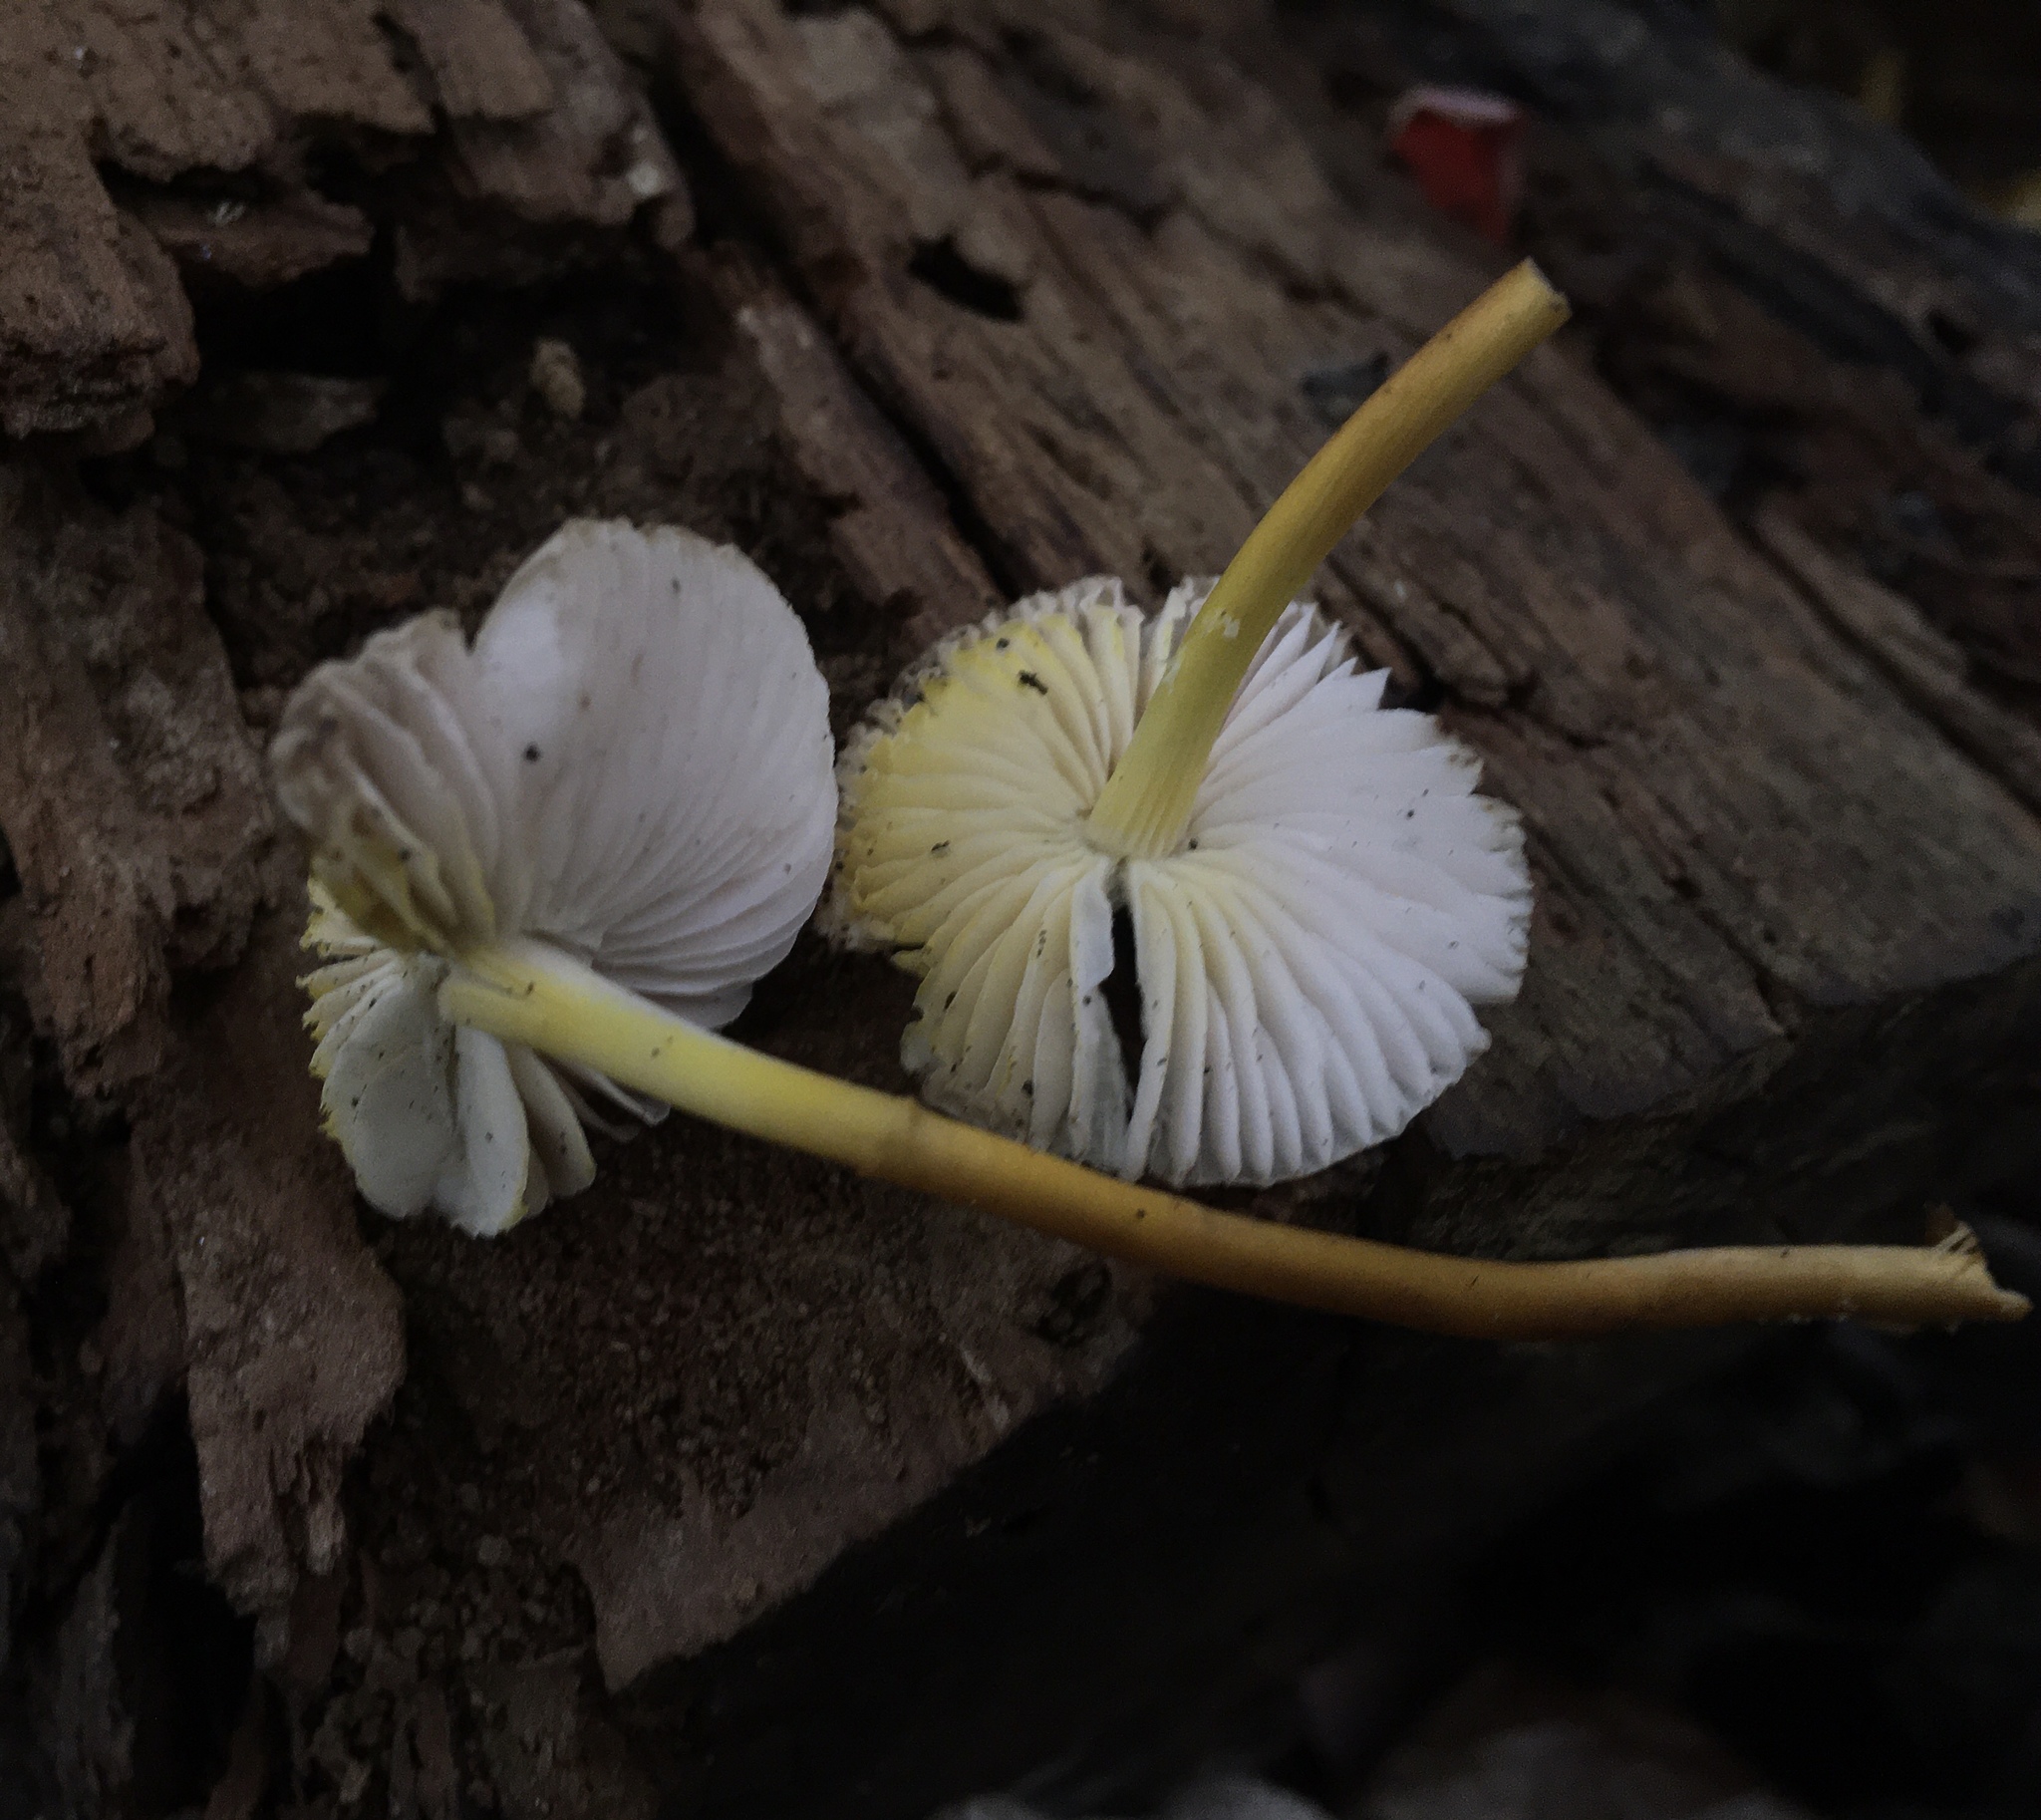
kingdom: Fungi
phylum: Basidiomycota
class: Agaricomycetes
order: Agaricales
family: Mycenaceae
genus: Mycena
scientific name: Mycena inclinata
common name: Clustered bonnet
